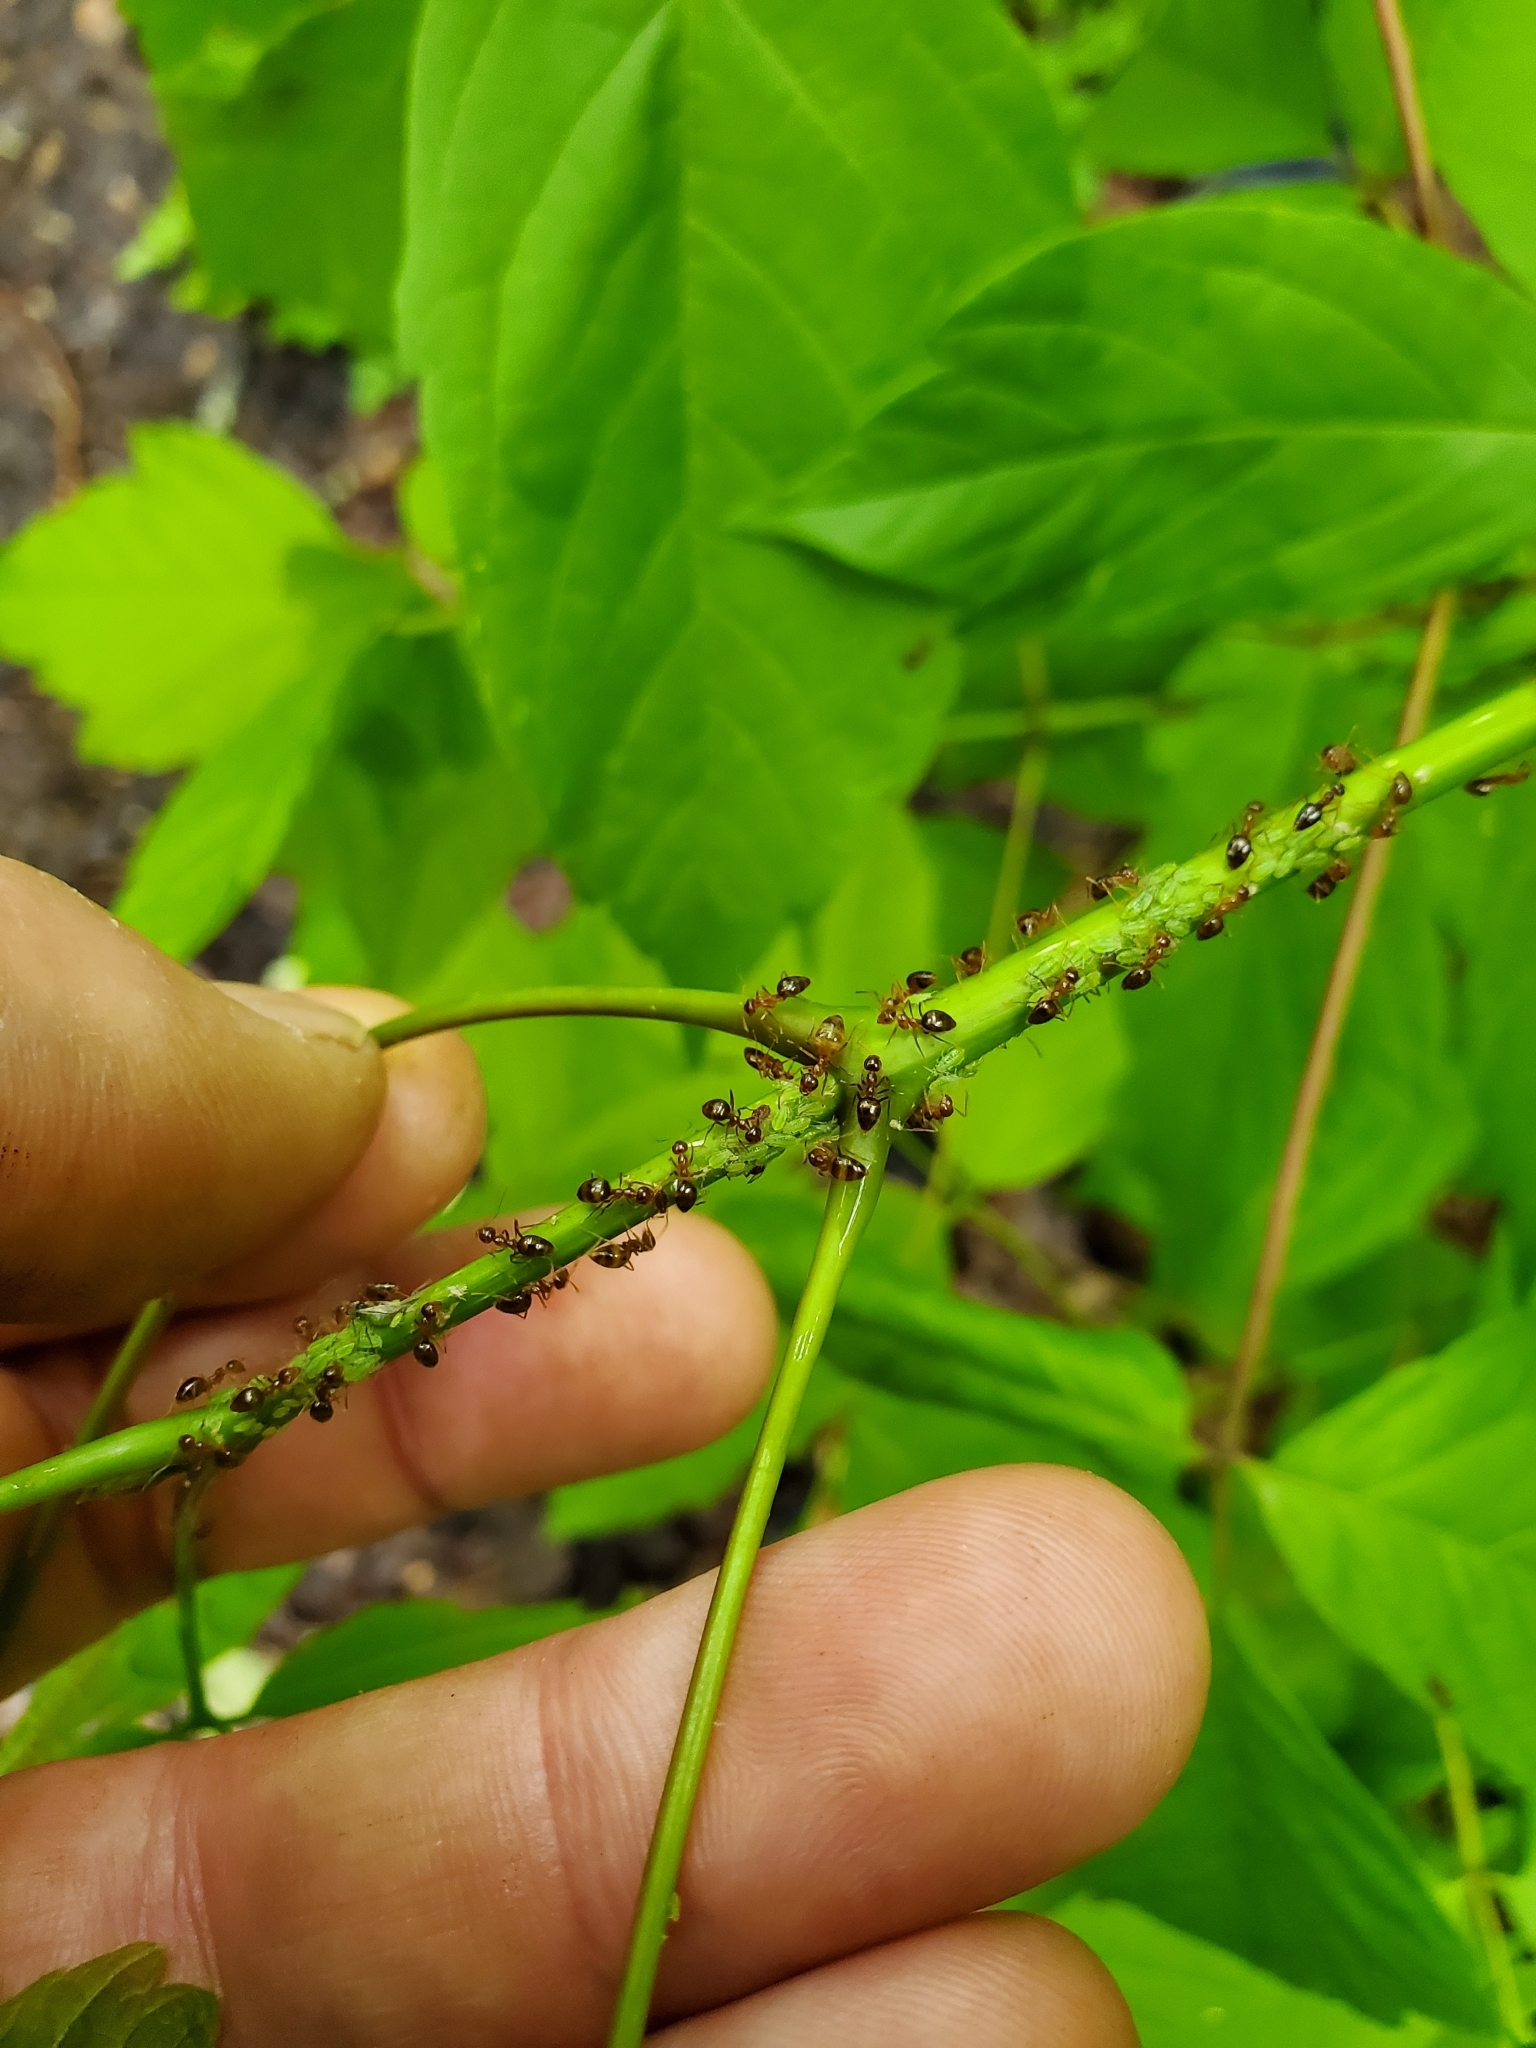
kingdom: Animalia
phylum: Arthropoda
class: Insecta
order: Hymenoptera
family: Formicidae
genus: Prenolepis
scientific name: Prenolepis imparis
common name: Small honey ant
